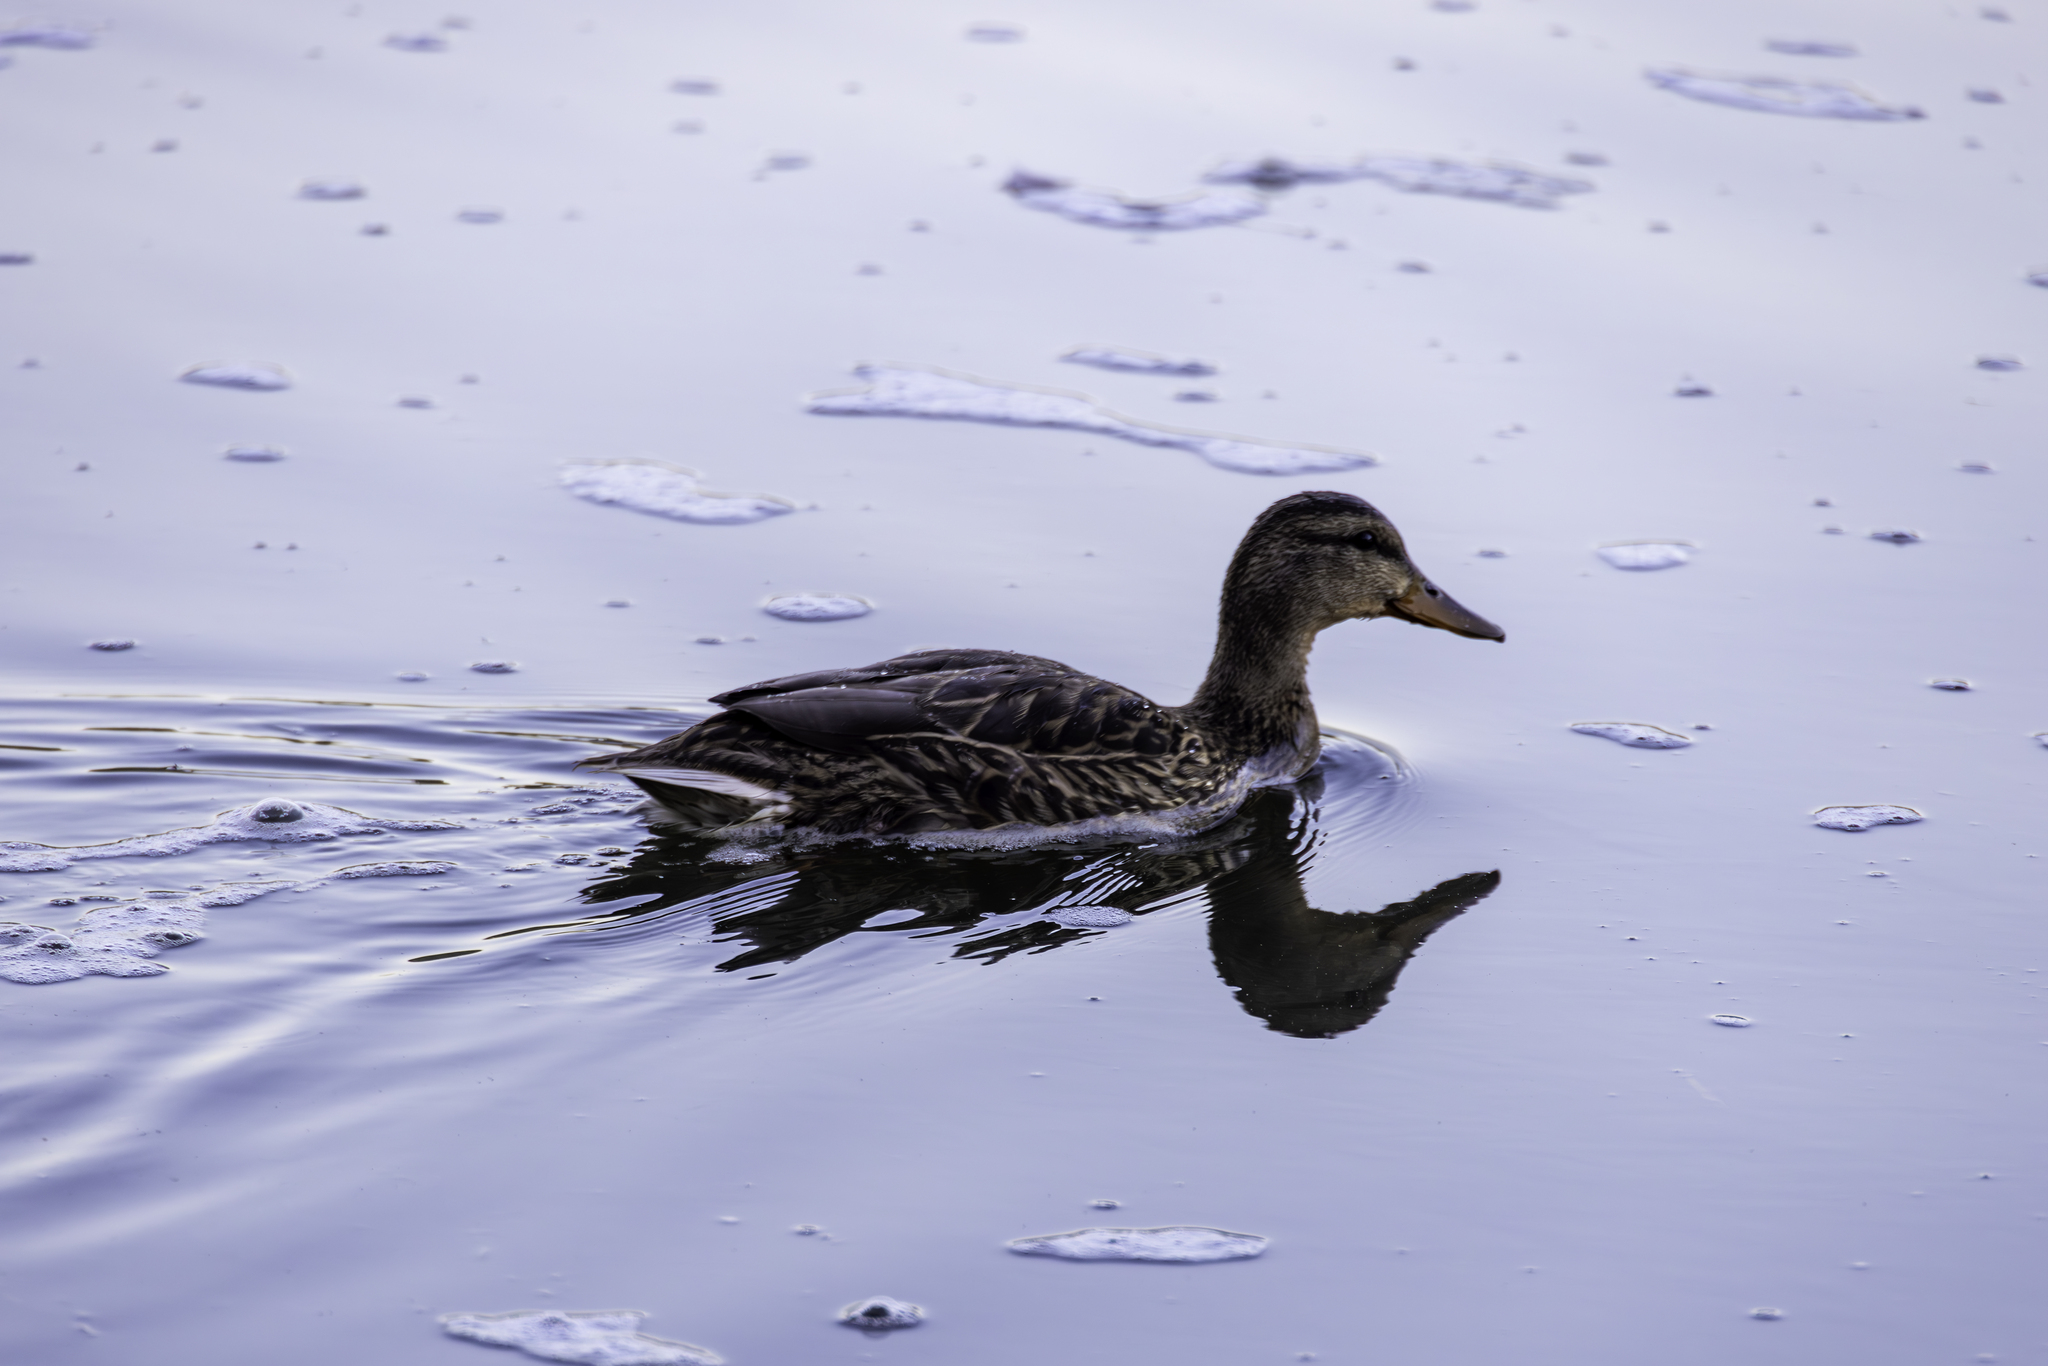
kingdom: Animalia
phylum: Chordata
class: Aves
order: Anseriformes
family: Anatidae
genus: Anas
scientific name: Anas platyrhynchos
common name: Mallard
